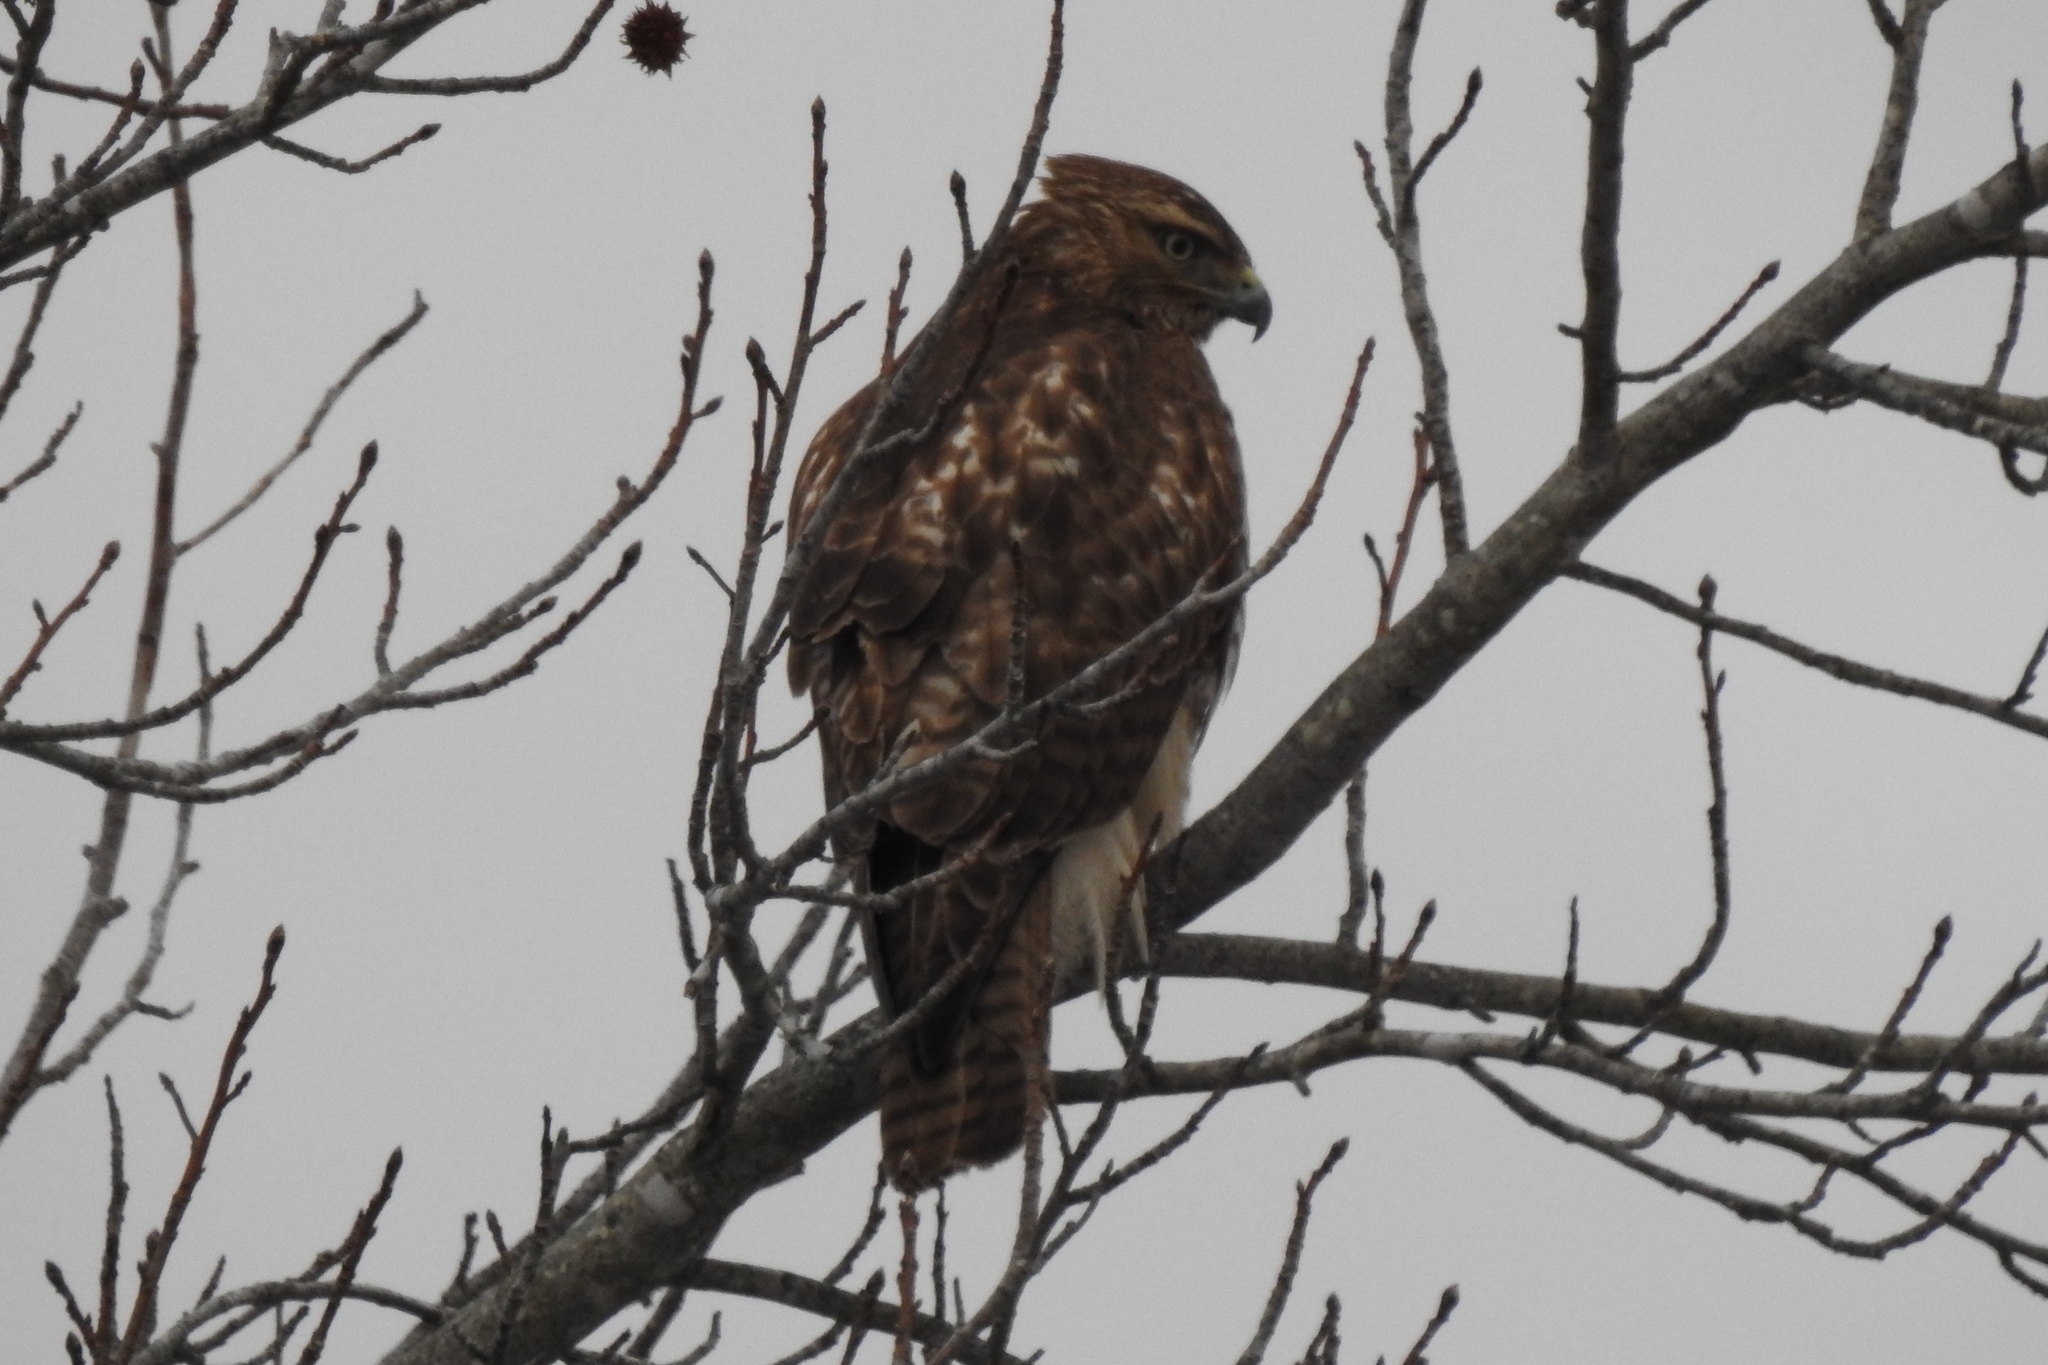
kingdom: Animalia
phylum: Chordata
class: Aves
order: Accipitriformes
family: Accipitridae
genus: Buteo
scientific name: Buteo jamaicensis
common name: Red-tailed hawk
